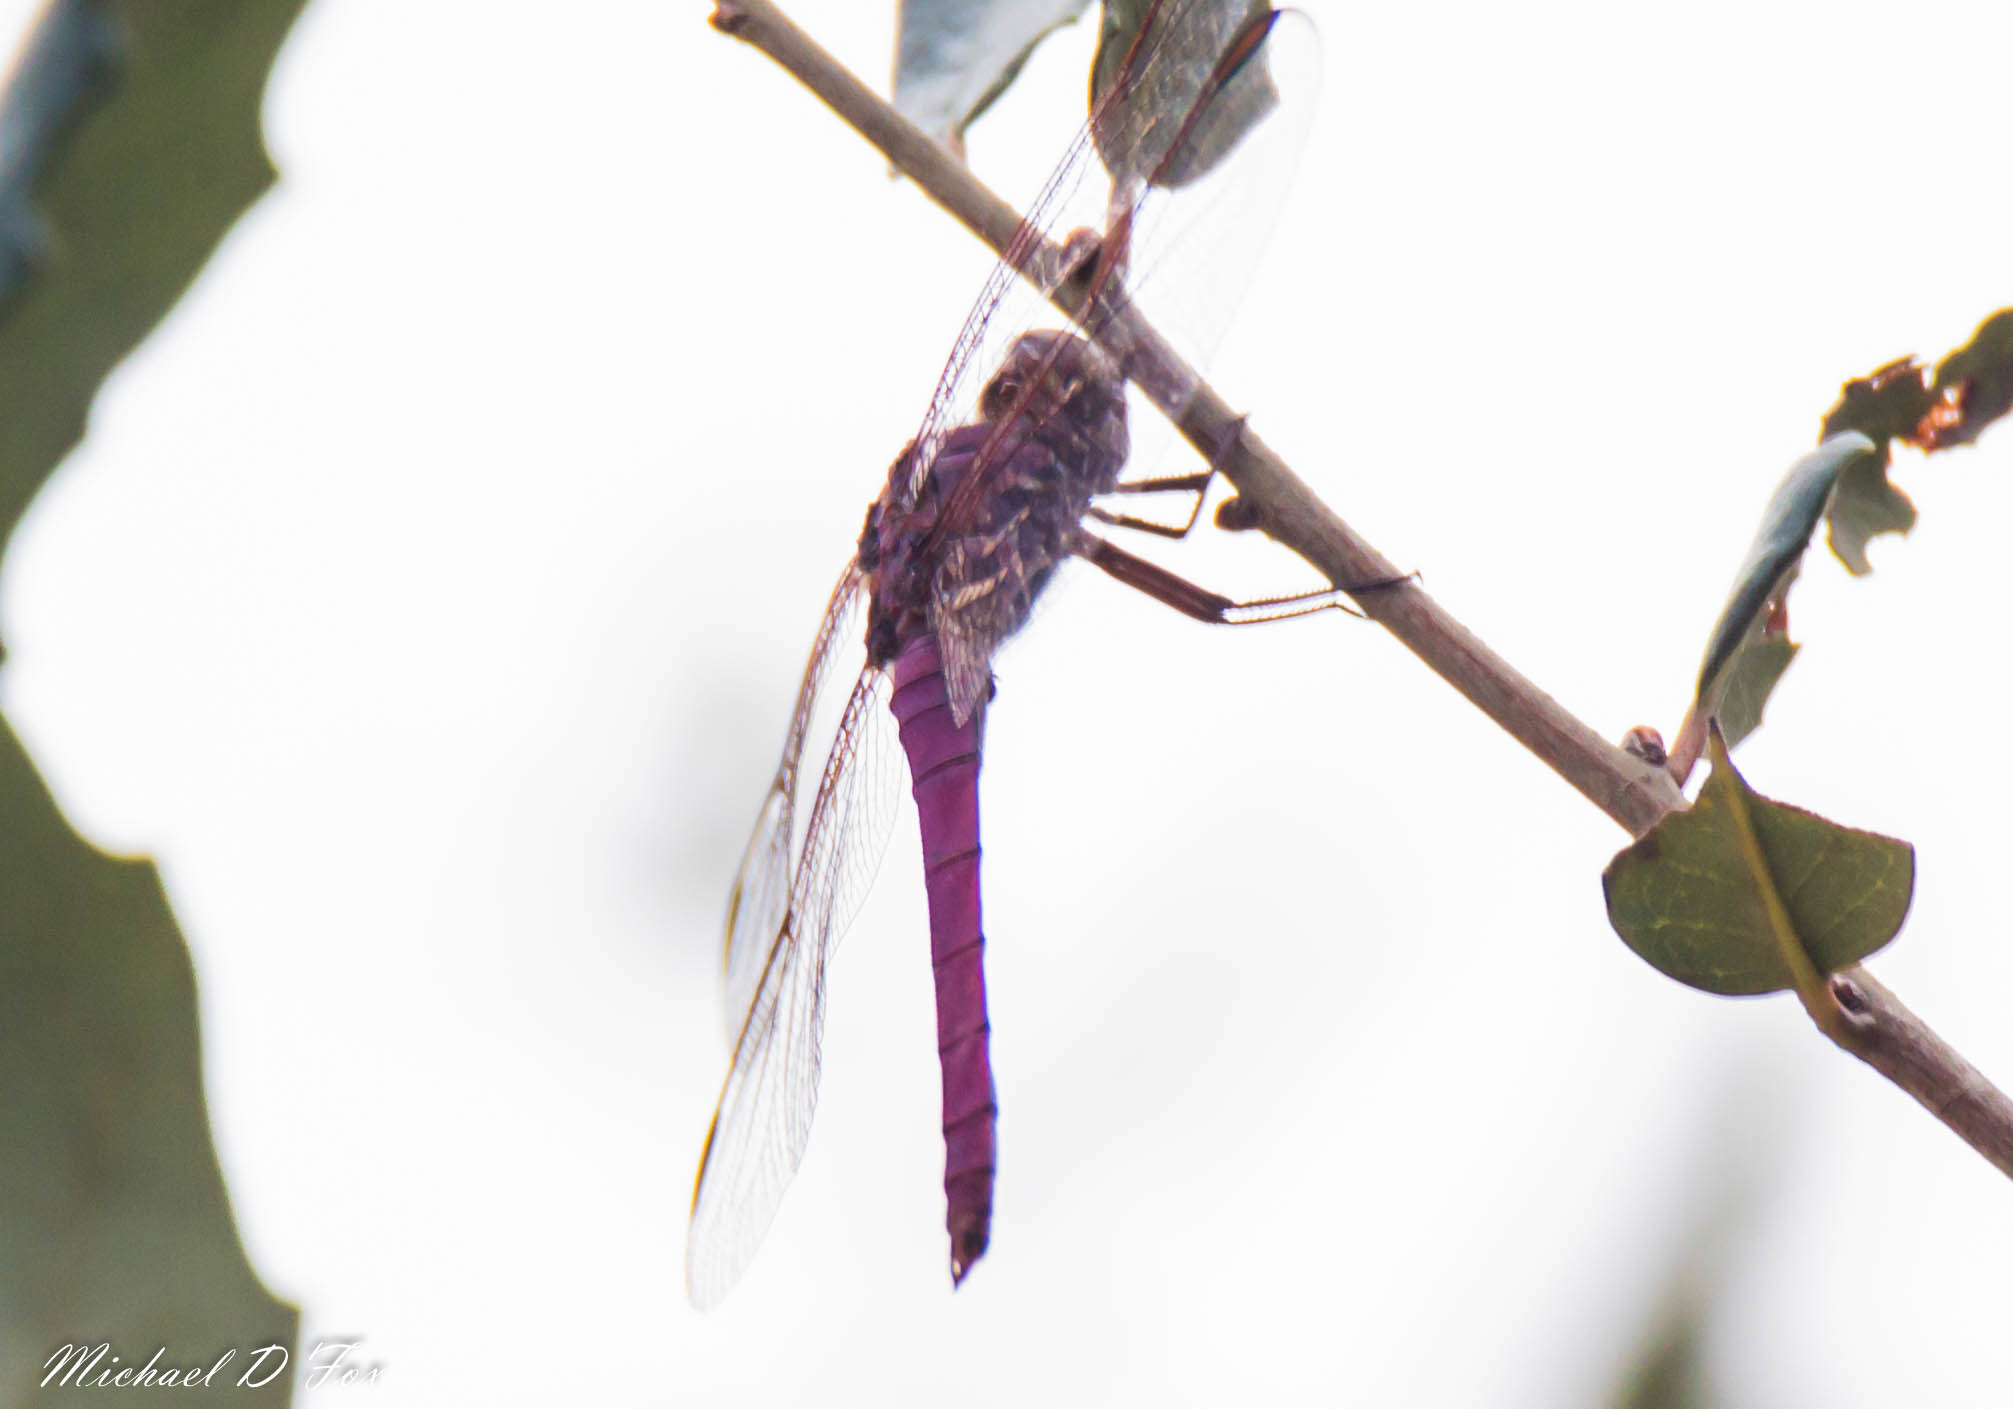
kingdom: Animalia
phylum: Arthropoda
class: Insecta
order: Odonata
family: Libellulidae
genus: Orthemis
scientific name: Orthemis ferruginea
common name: Roseate skimmer
